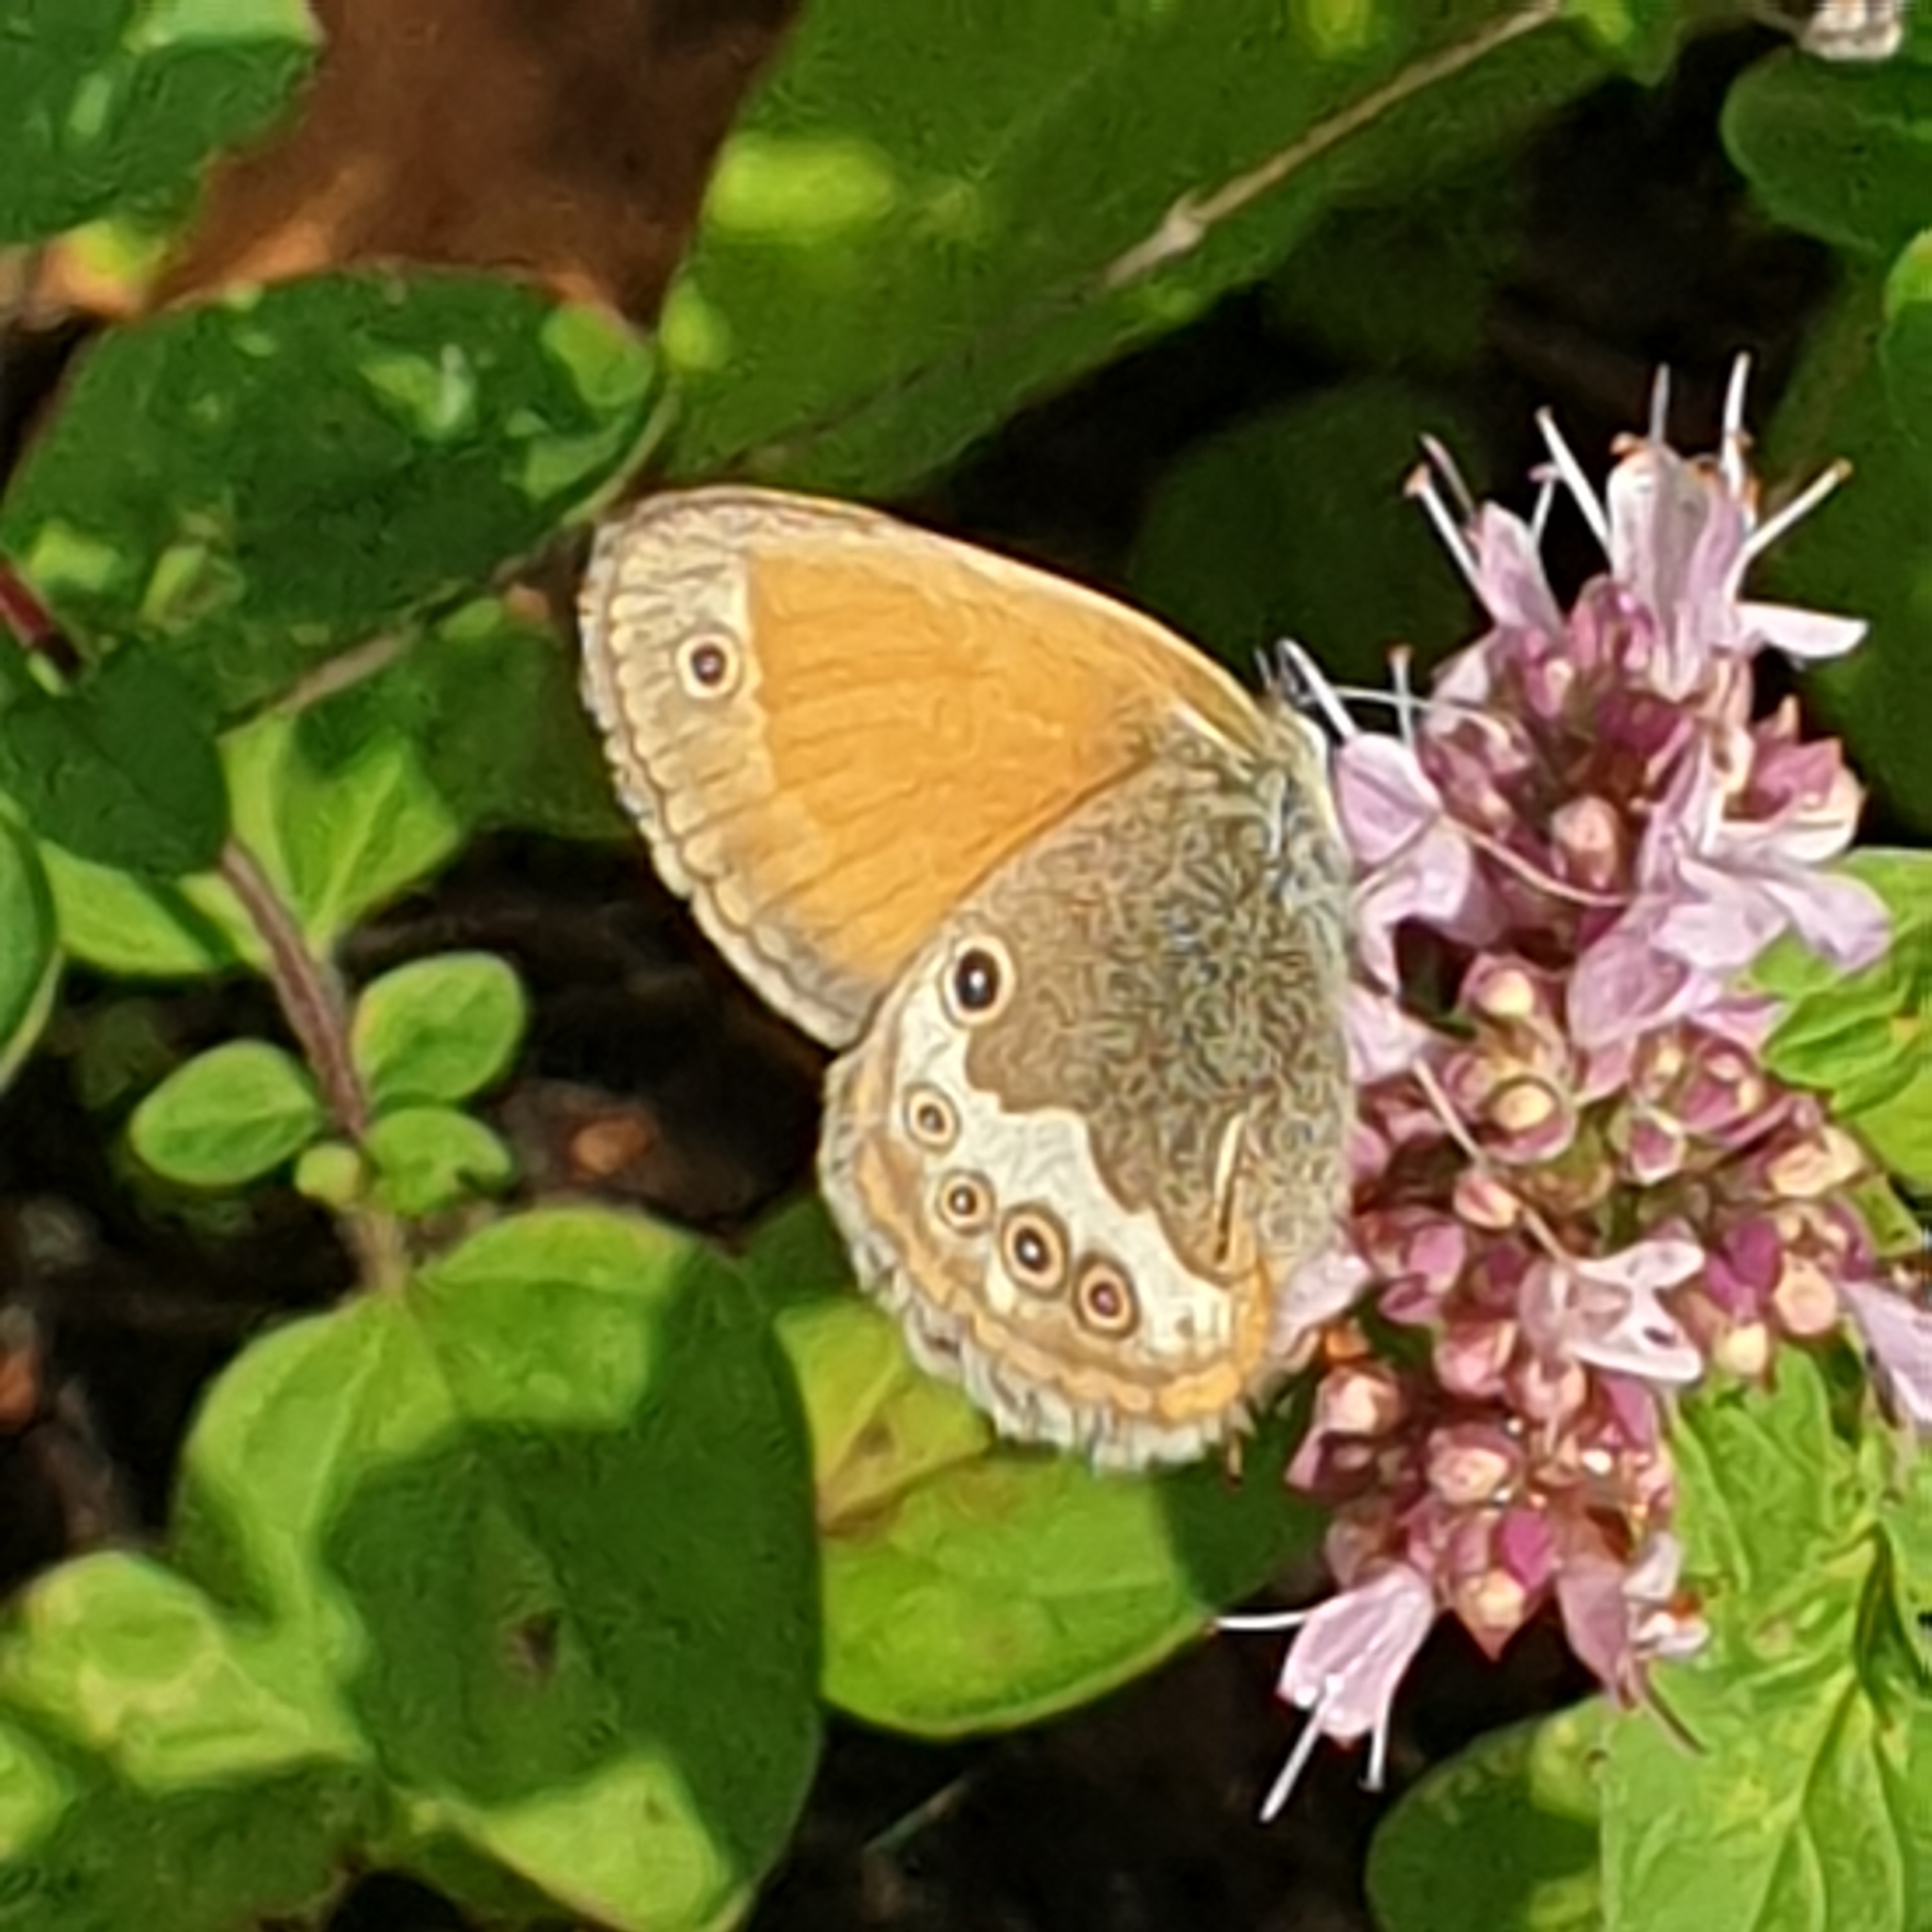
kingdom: Animalia
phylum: Arthropoda
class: Insecta
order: Lepidoptera
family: Nymphalidae
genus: Coenonympha
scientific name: Coenonympha arcania
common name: Pearly heath
